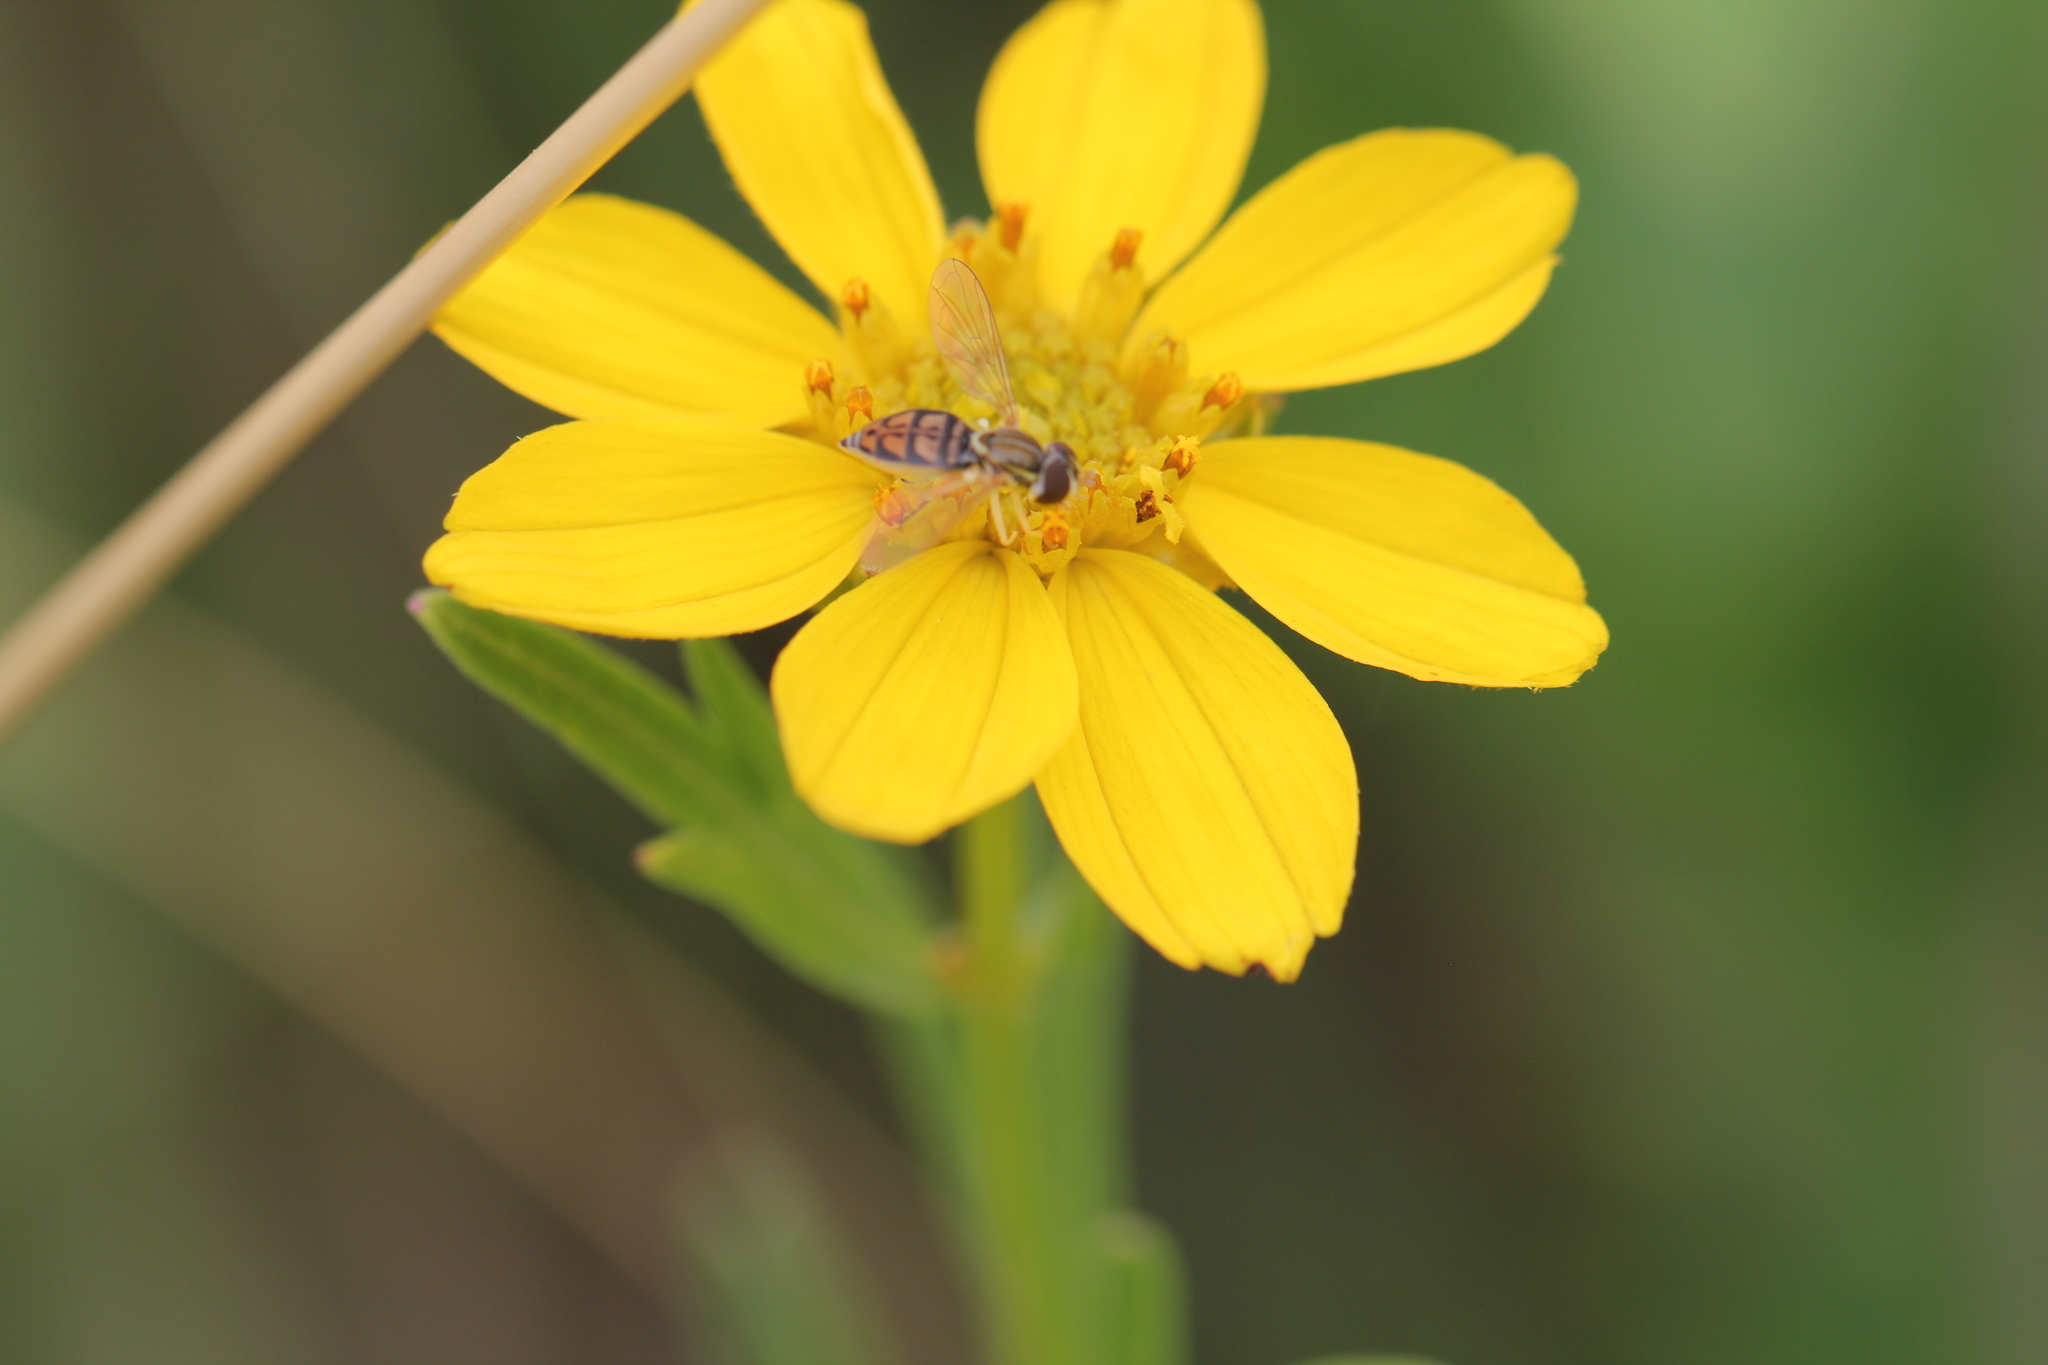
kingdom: Animalia
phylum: Arthropoda
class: Insecta
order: Diptera
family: Syrphidae
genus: Toxomerus
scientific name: Toxomerus marginatus
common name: Syrphid fly
